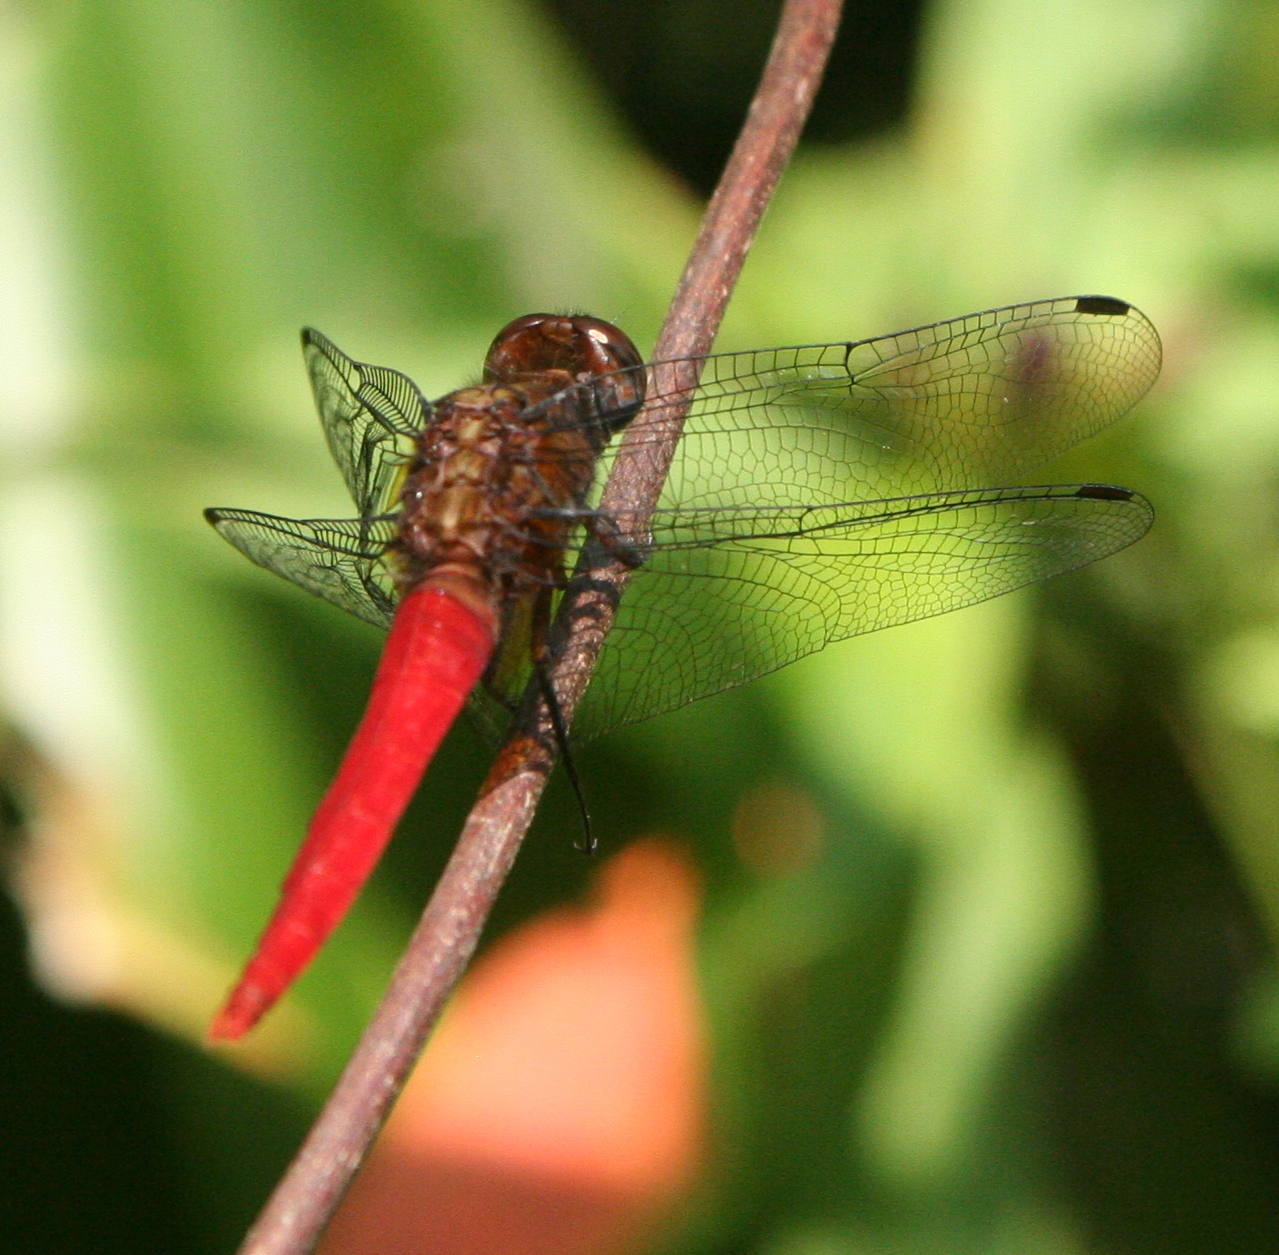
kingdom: Animalia
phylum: Arthropoda
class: Insecta
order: Odonata
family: Libellulidae
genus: Orthetrum
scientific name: Orthetrum chrysis
